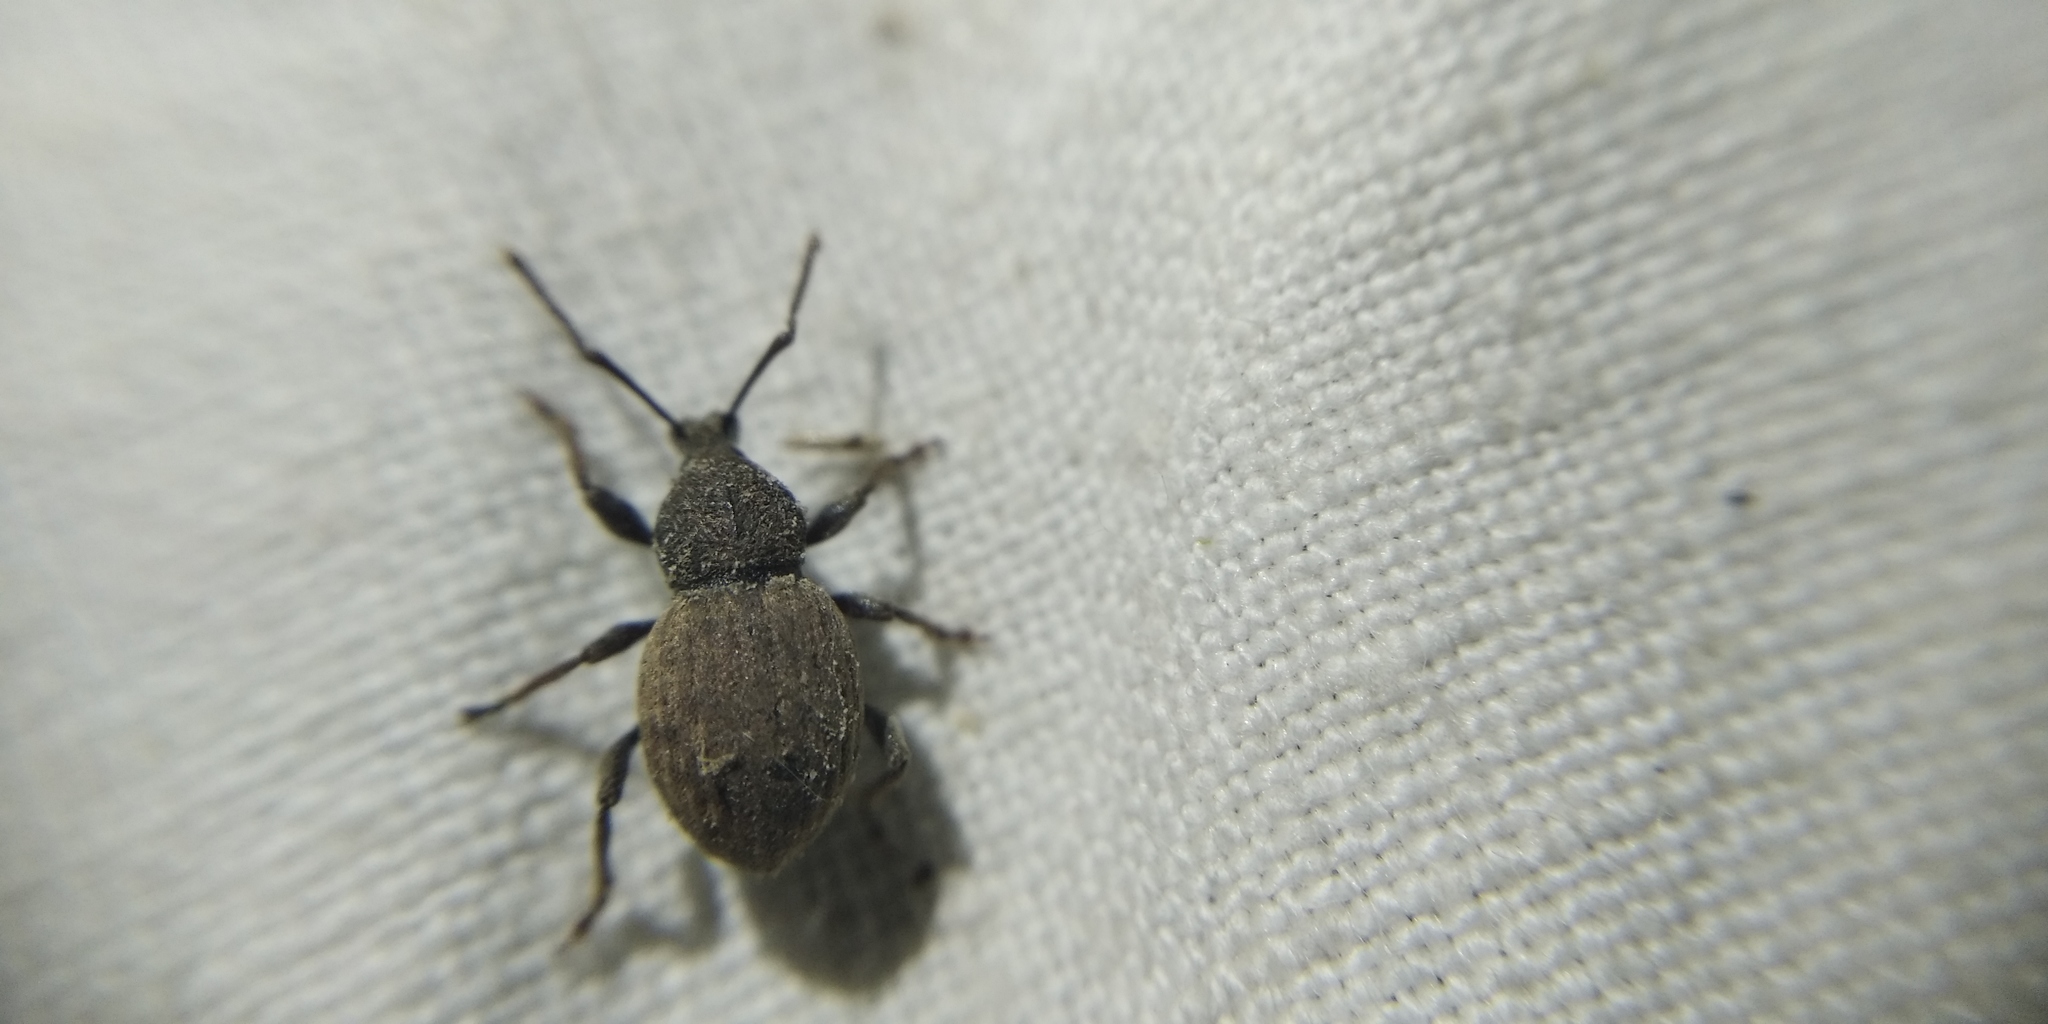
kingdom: Animalia
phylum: Arthropoda
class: Insecta
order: Coleoptera
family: Curculionidae
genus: Otiorhynchus
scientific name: Otiorhynchus raucus
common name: Weevil
